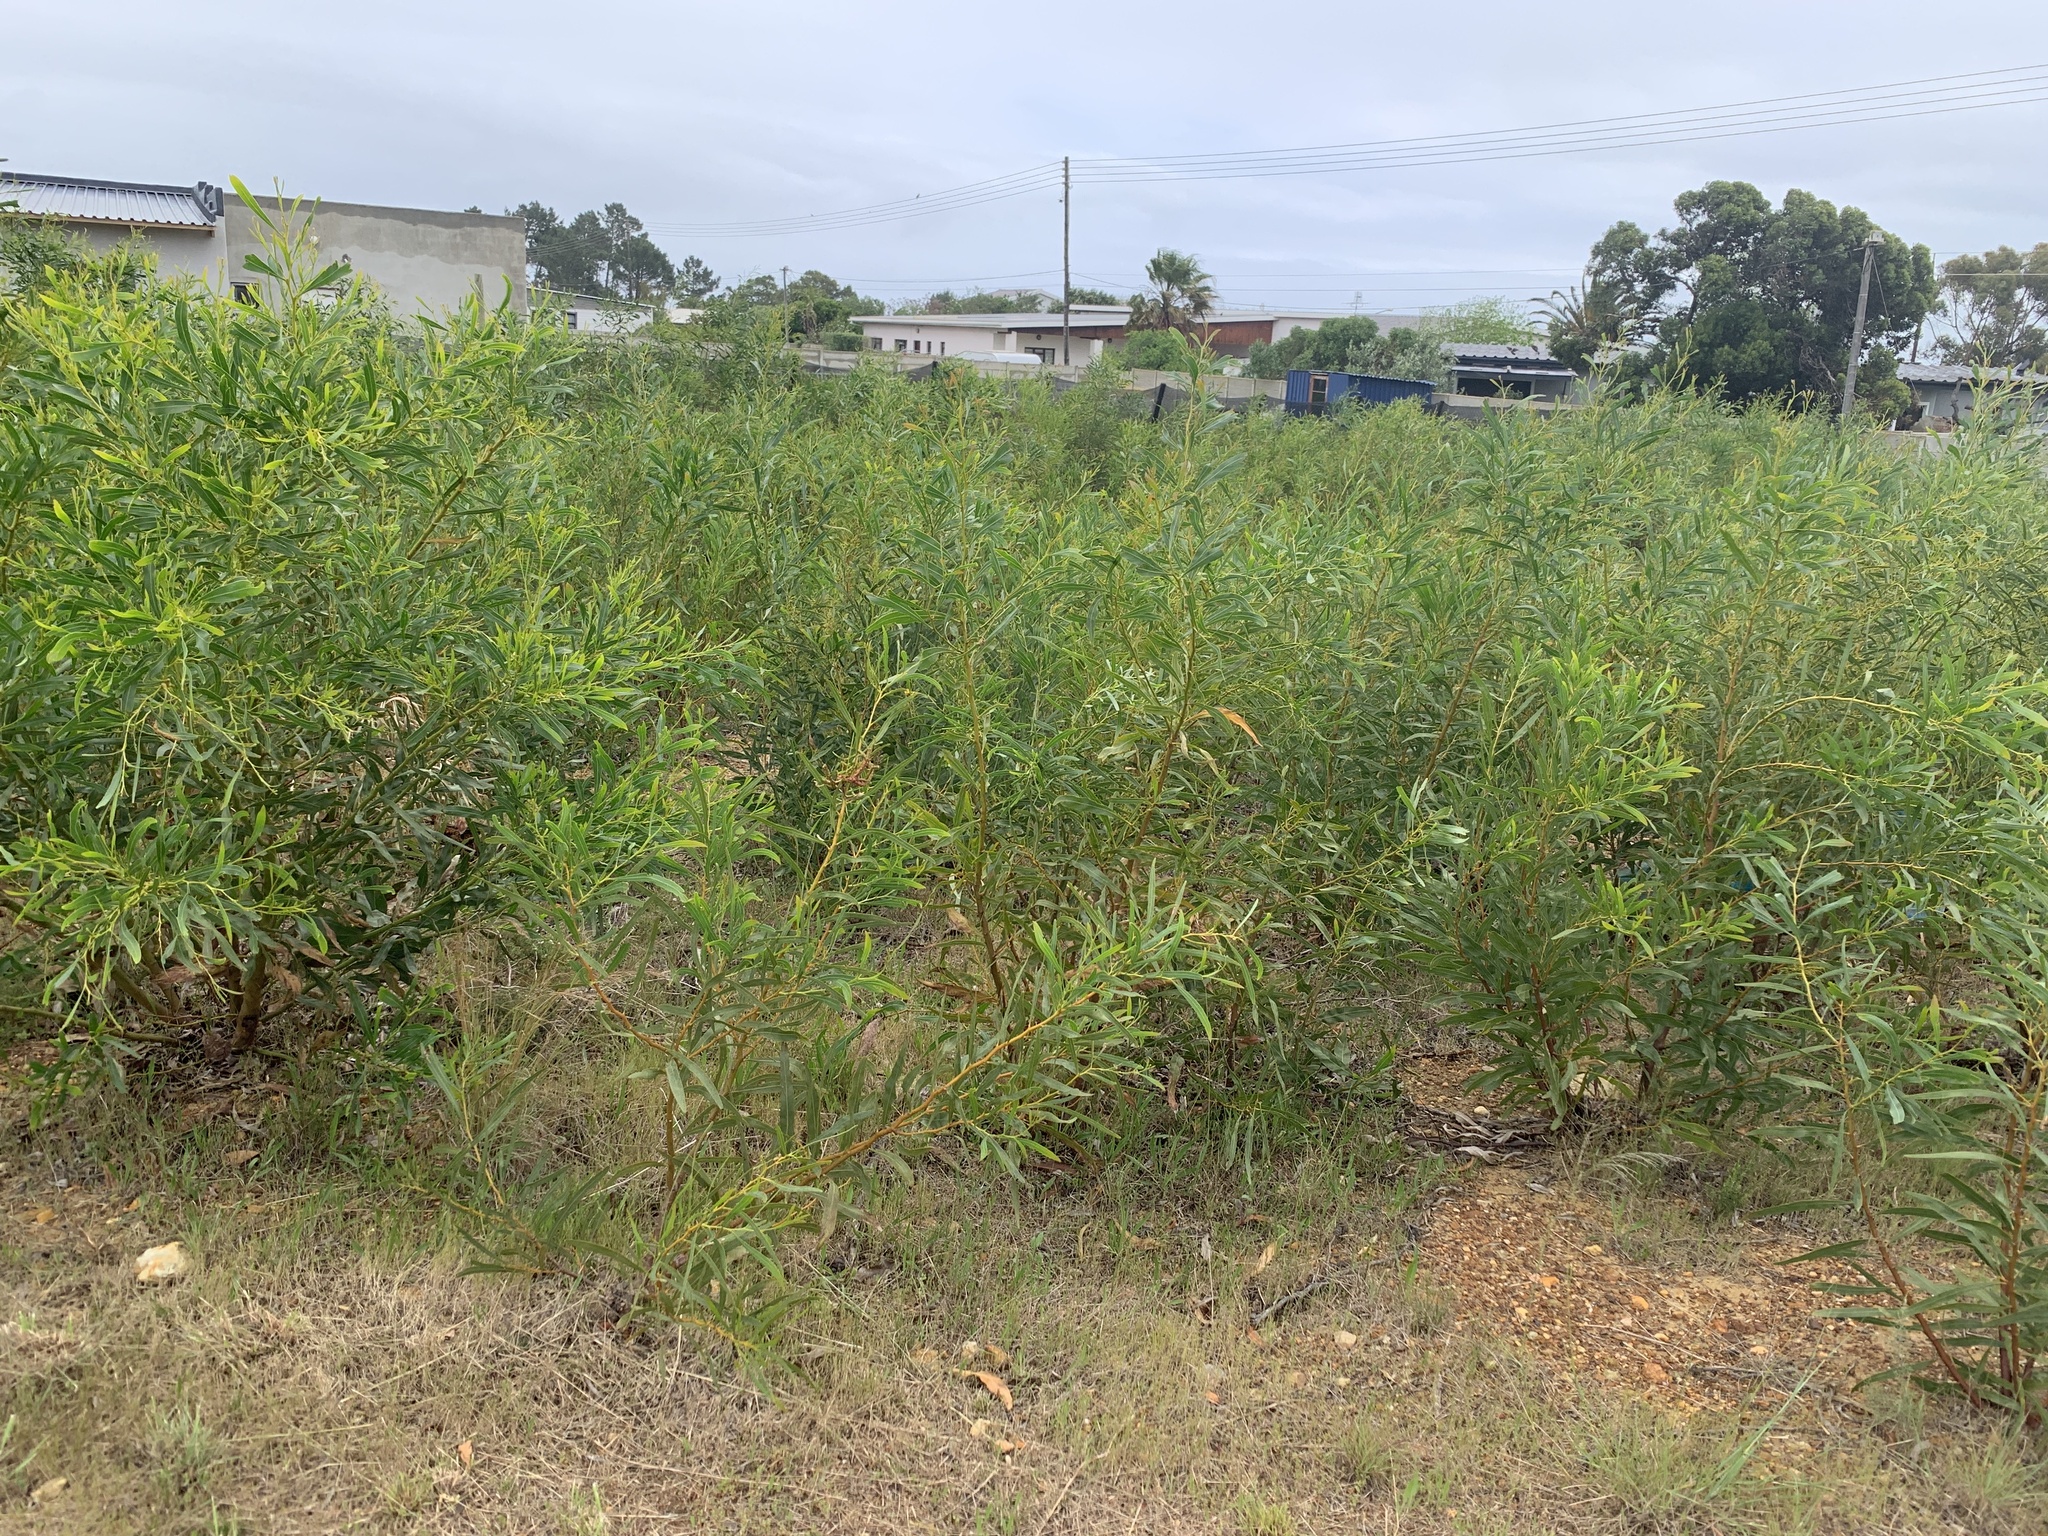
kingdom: Plantae
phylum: Tracheophyta
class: Magnoliopsida
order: Fabales
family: Fabaceae
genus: Acacia
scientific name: Acacia saligna
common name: Orange wattle
